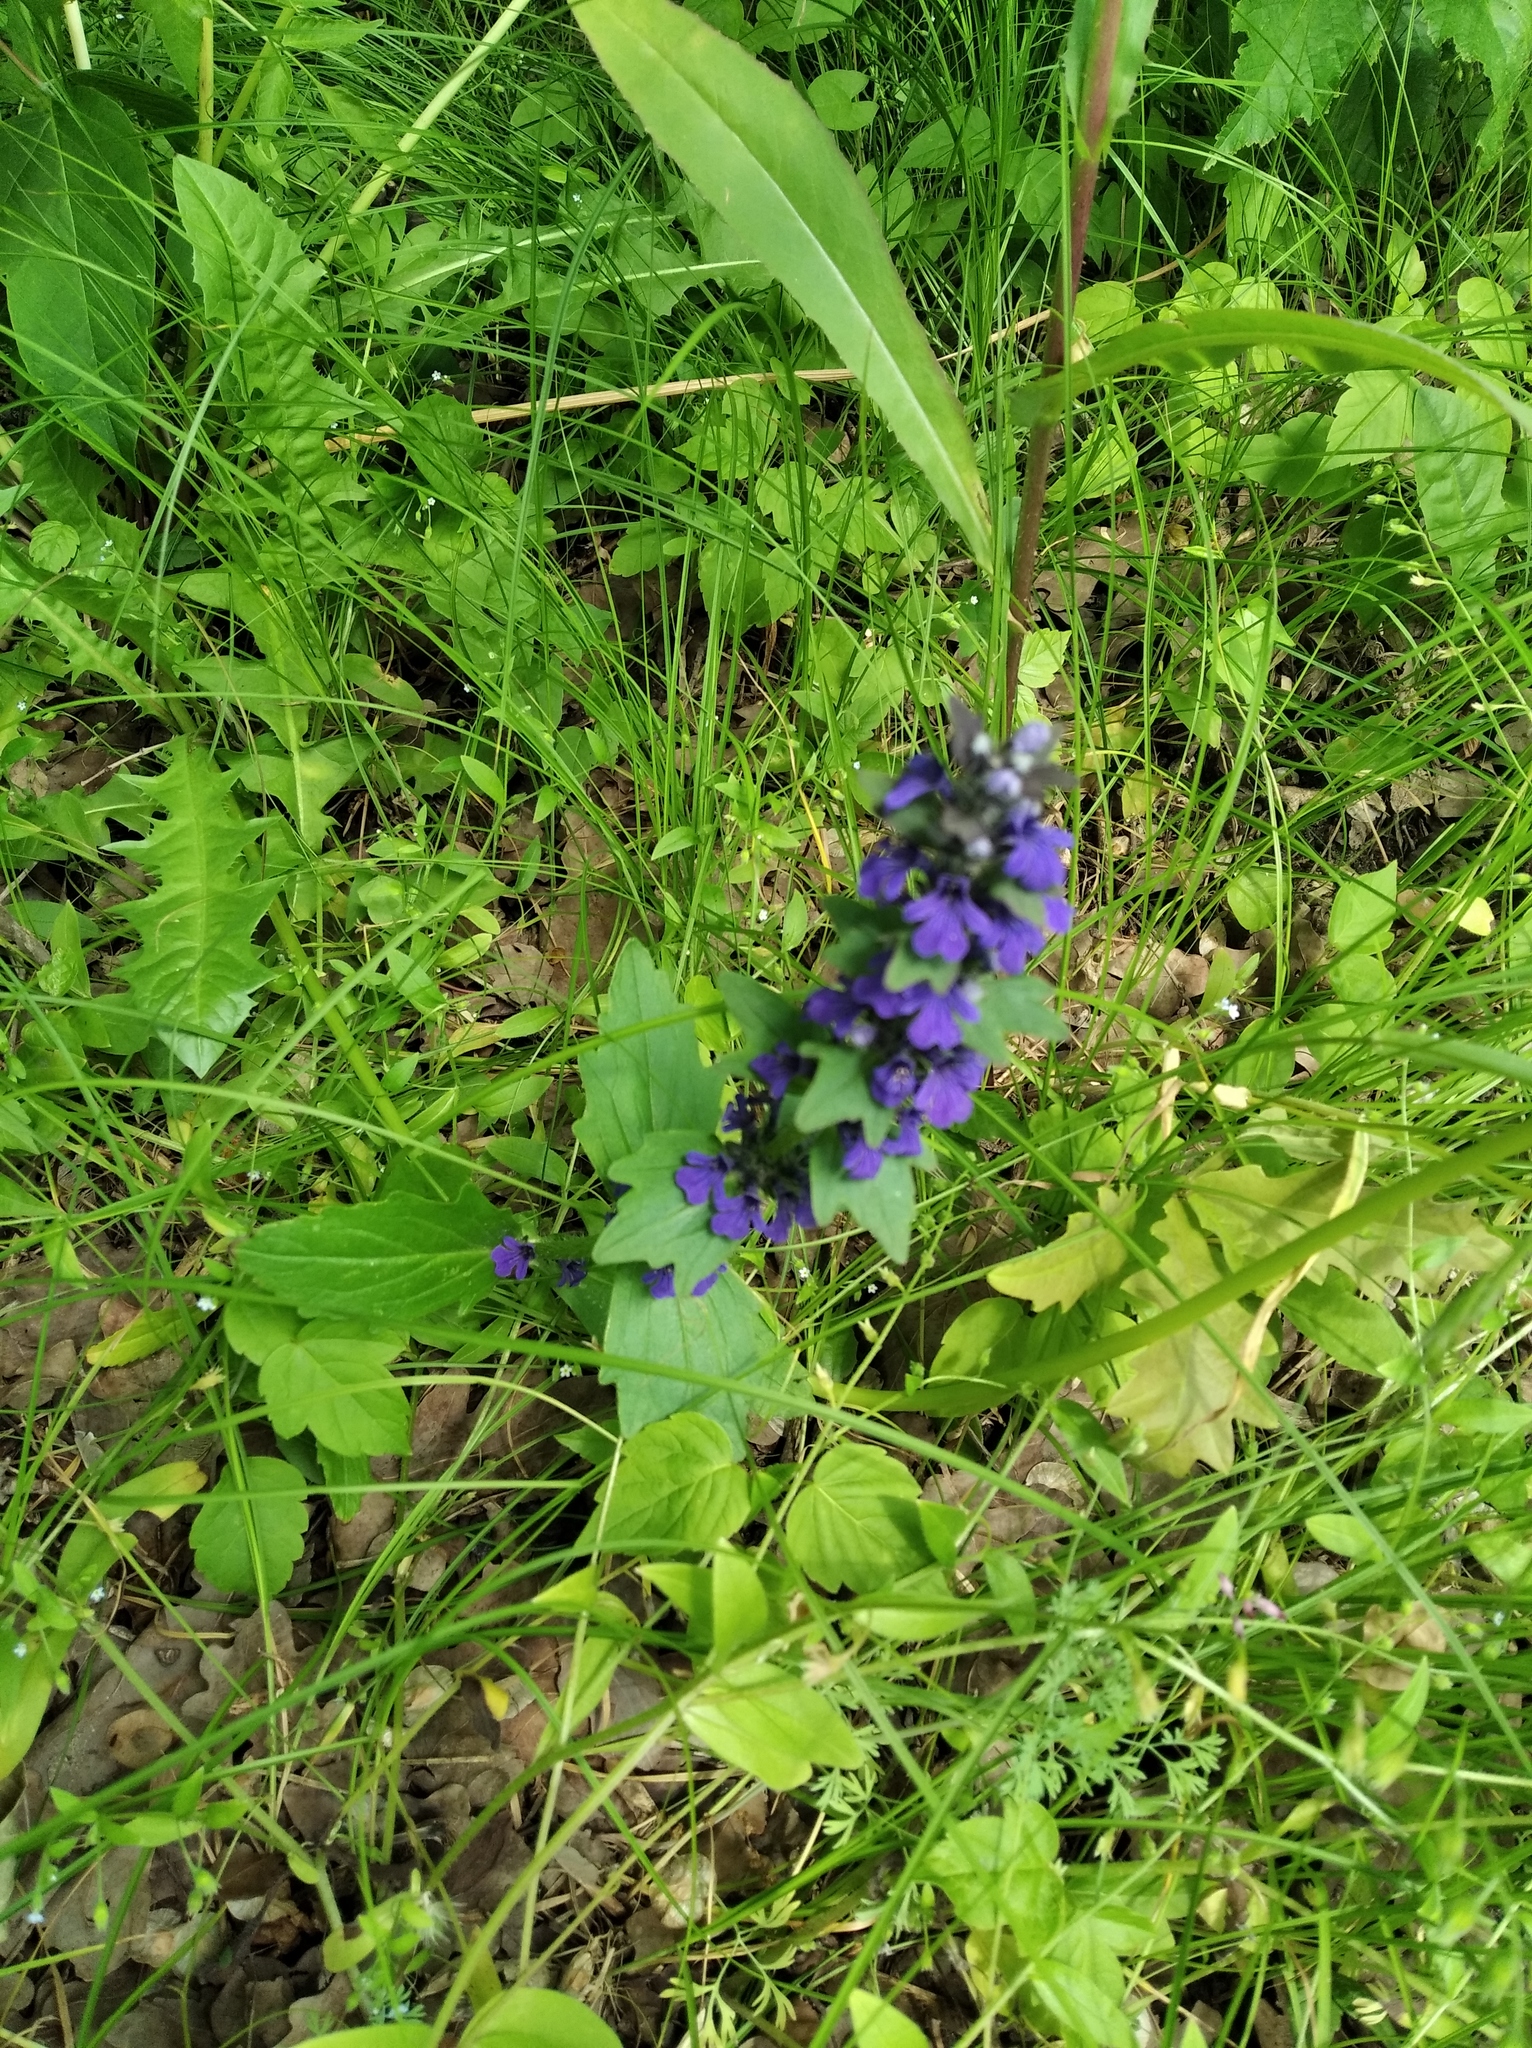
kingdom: Plantae
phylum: Tracheophyta
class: Magnoliopsida
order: Lamiales
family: Lamiaceae
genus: Ajuga
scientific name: Ajuga genevensis
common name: Blue bugle
